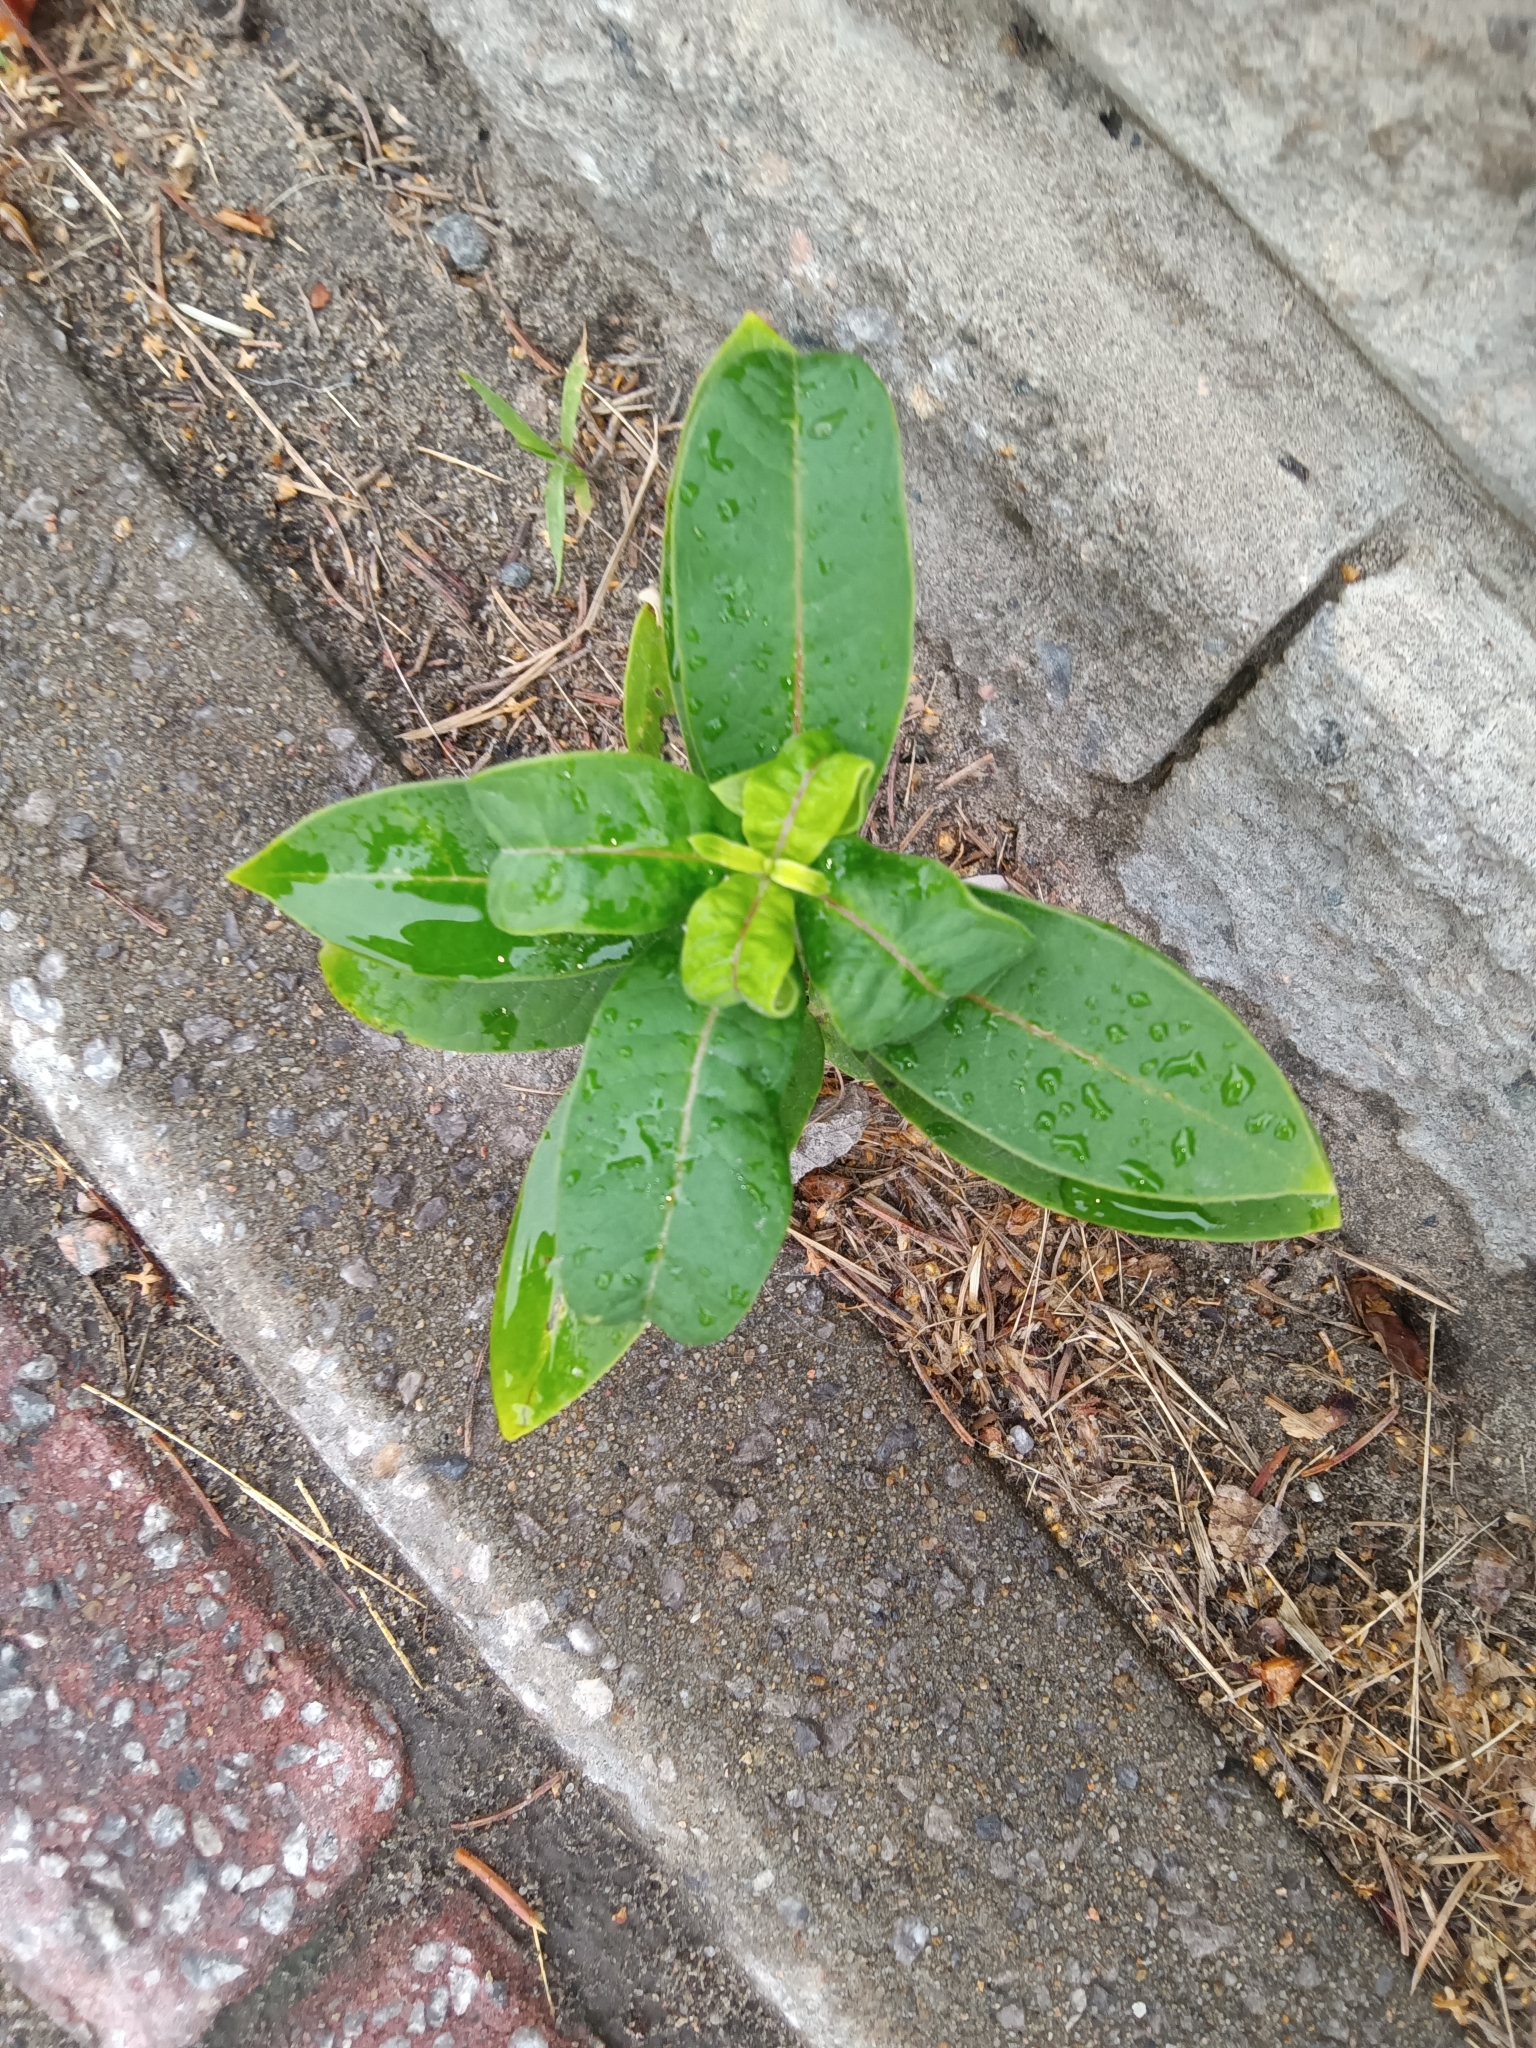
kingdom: Plantae
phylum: Tracheophyta
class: Magnoliopsida
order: Gentianales
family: Apocynaceae
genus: Asclepias
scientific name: Asclepias syriaca
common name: Common milkweed
